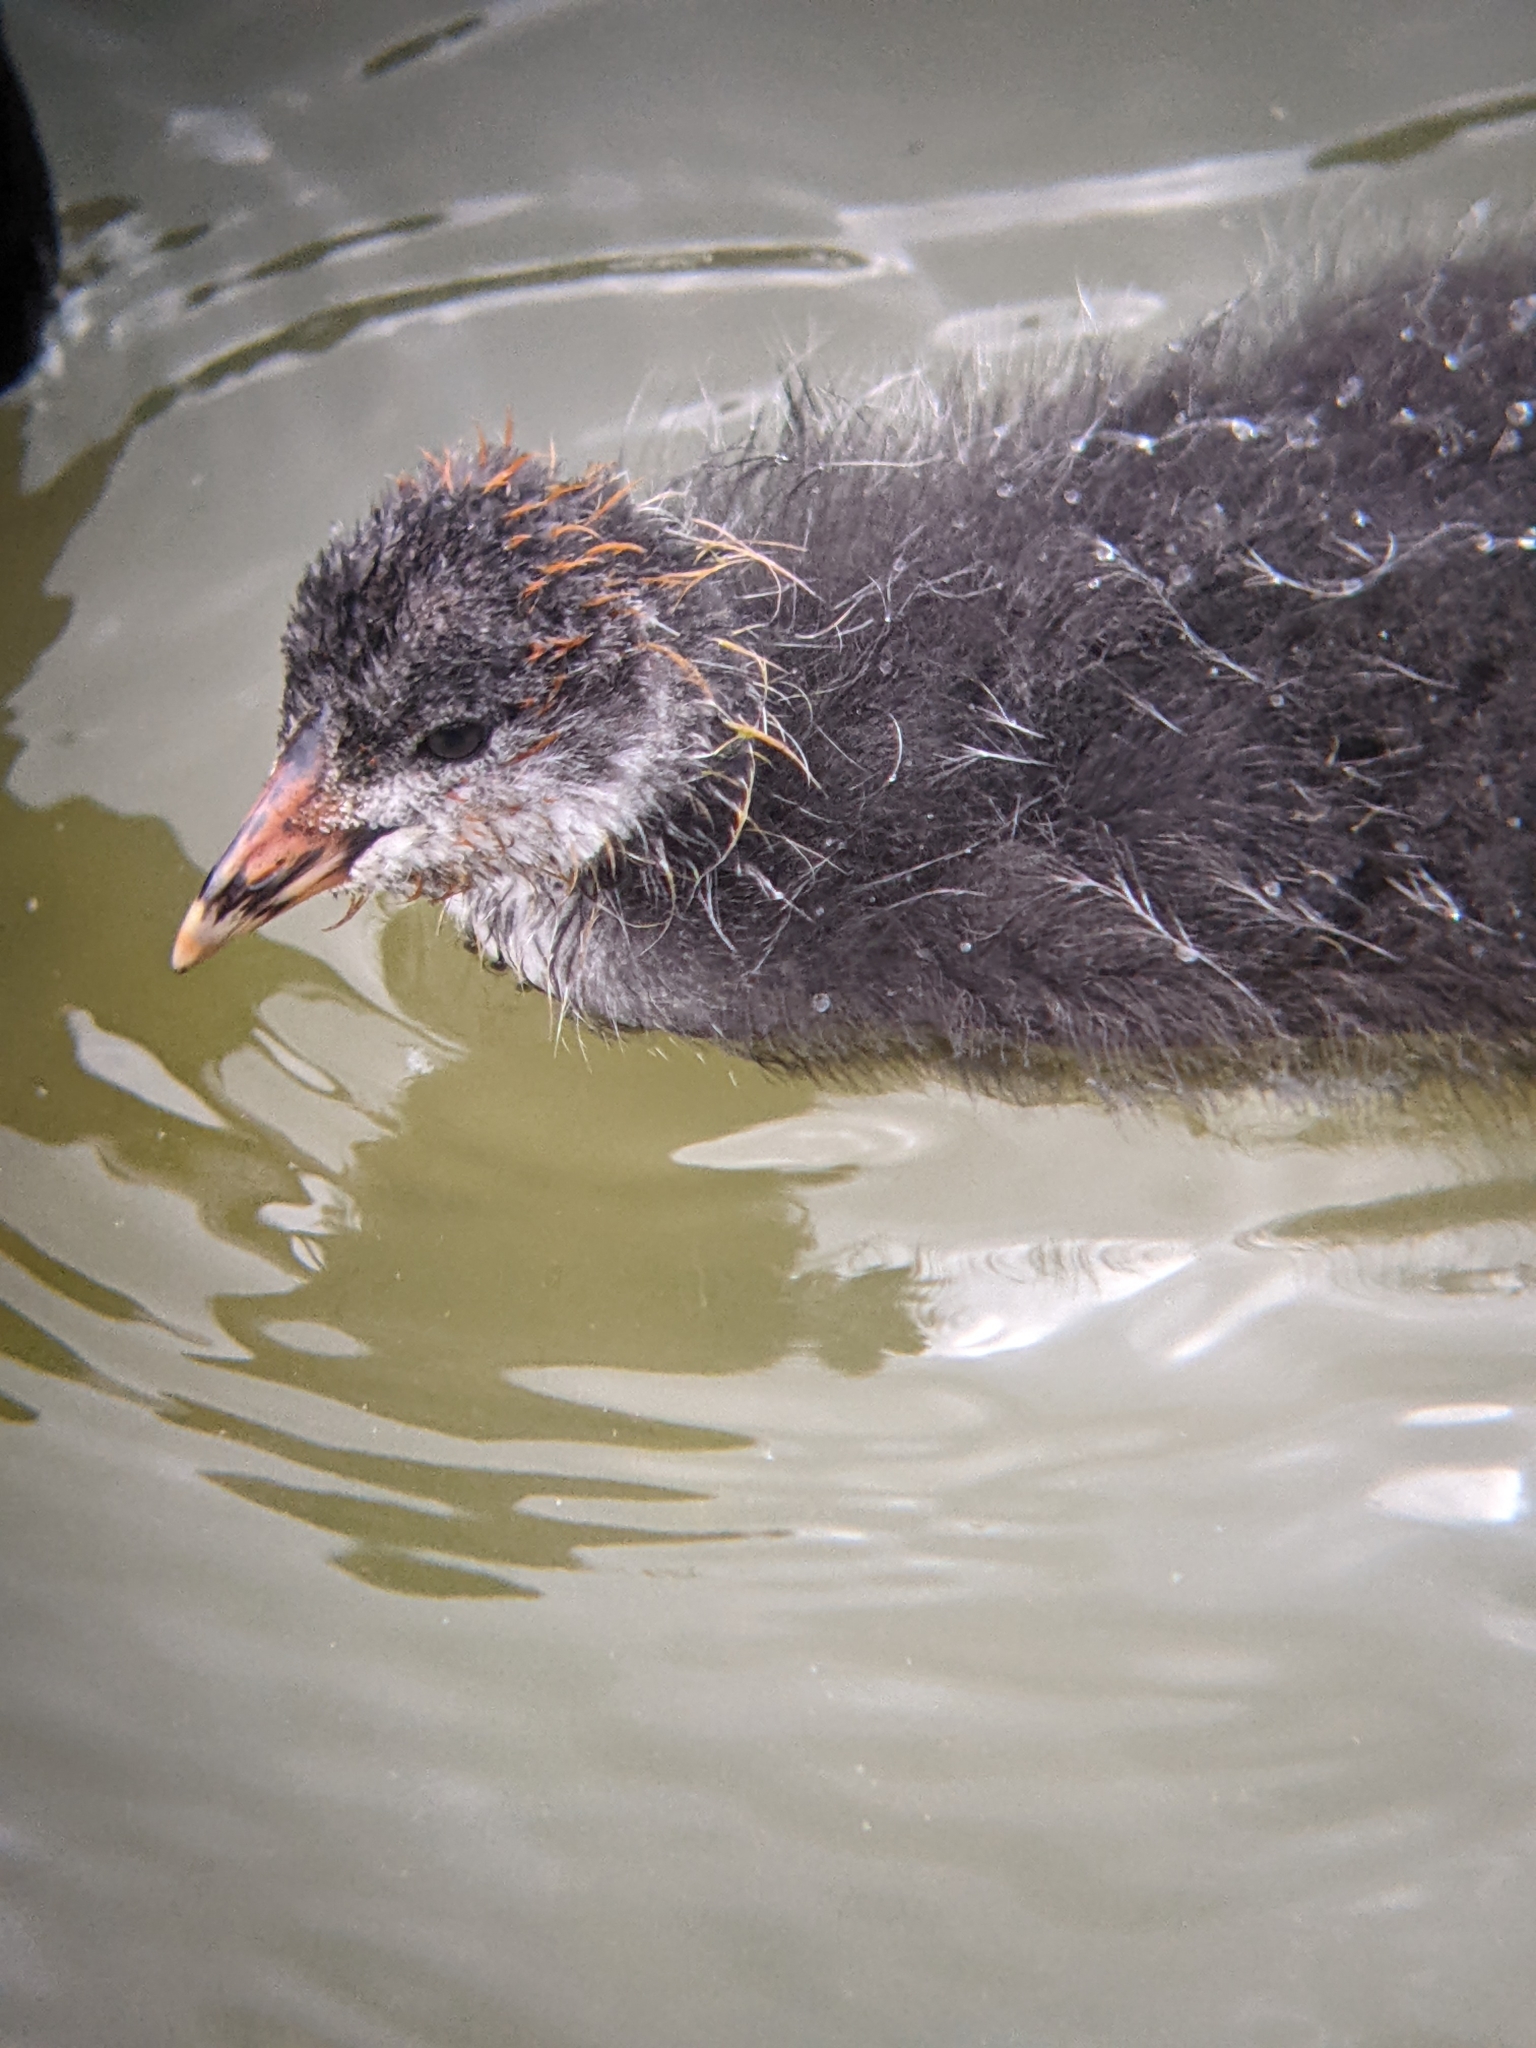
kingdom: Animalia
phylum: Chordata
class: Aves
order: Gruiformes
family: Rallidae
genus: Fulica
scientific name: Fulica atra
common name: Eurasian coot
